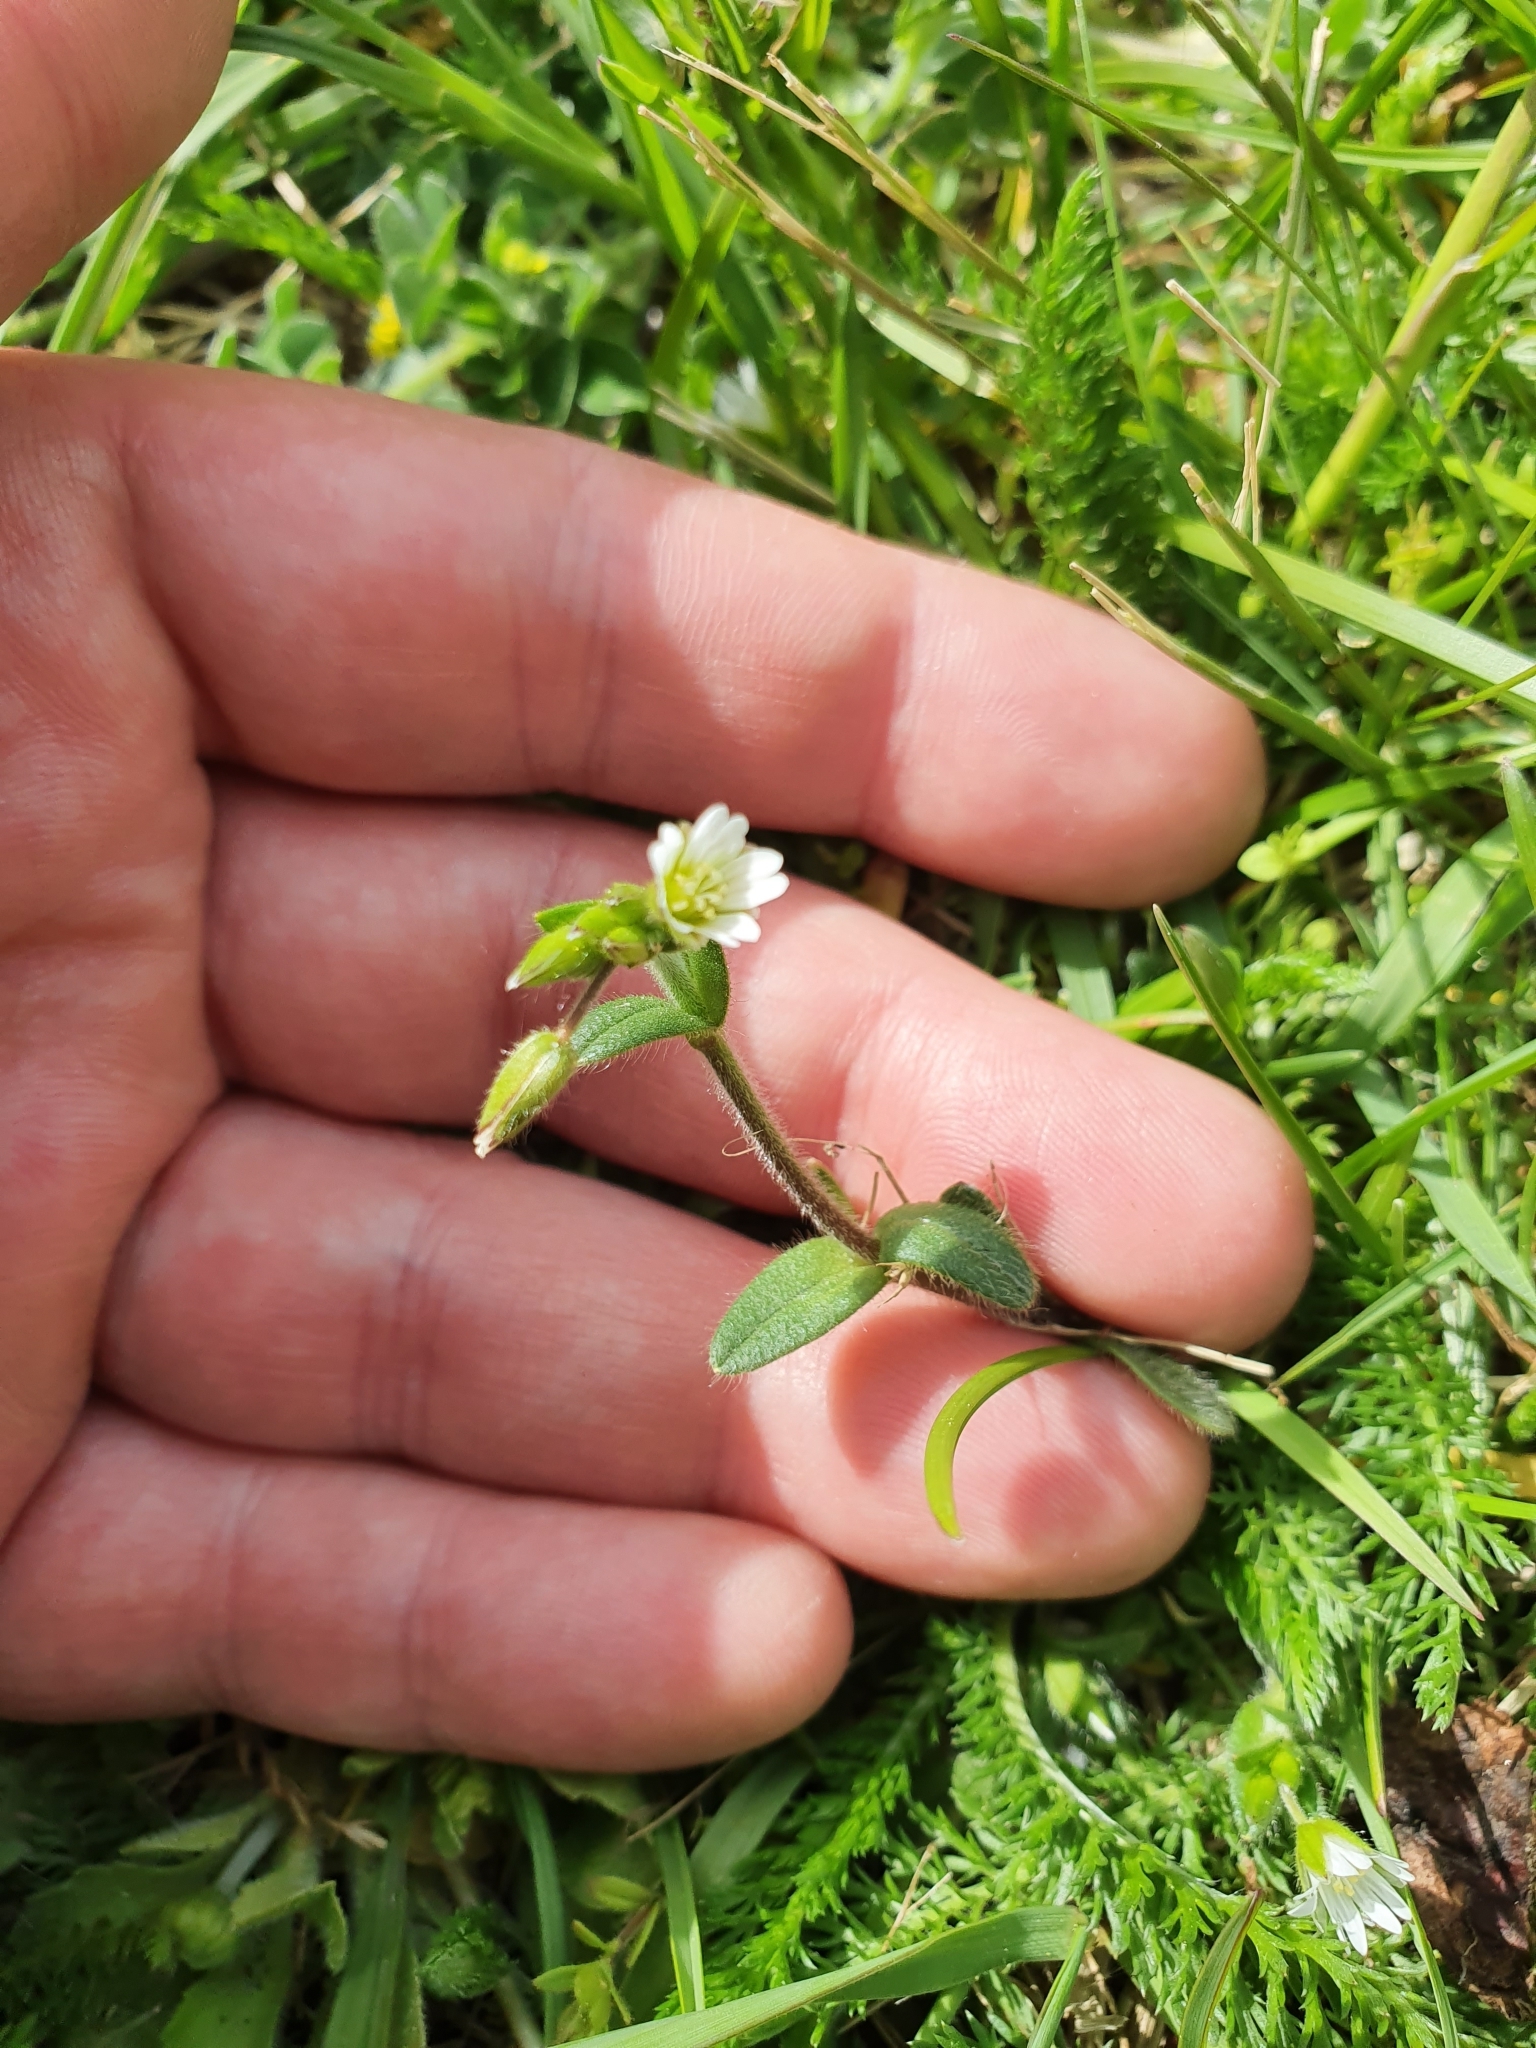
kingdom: Plantae
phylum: Tracheophyta
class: Magnoliopsida
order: Caryophyllales
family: Caryophyllaceae
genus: Cerastium
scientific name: Cerastium fontanum
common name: Common mouse-ear
